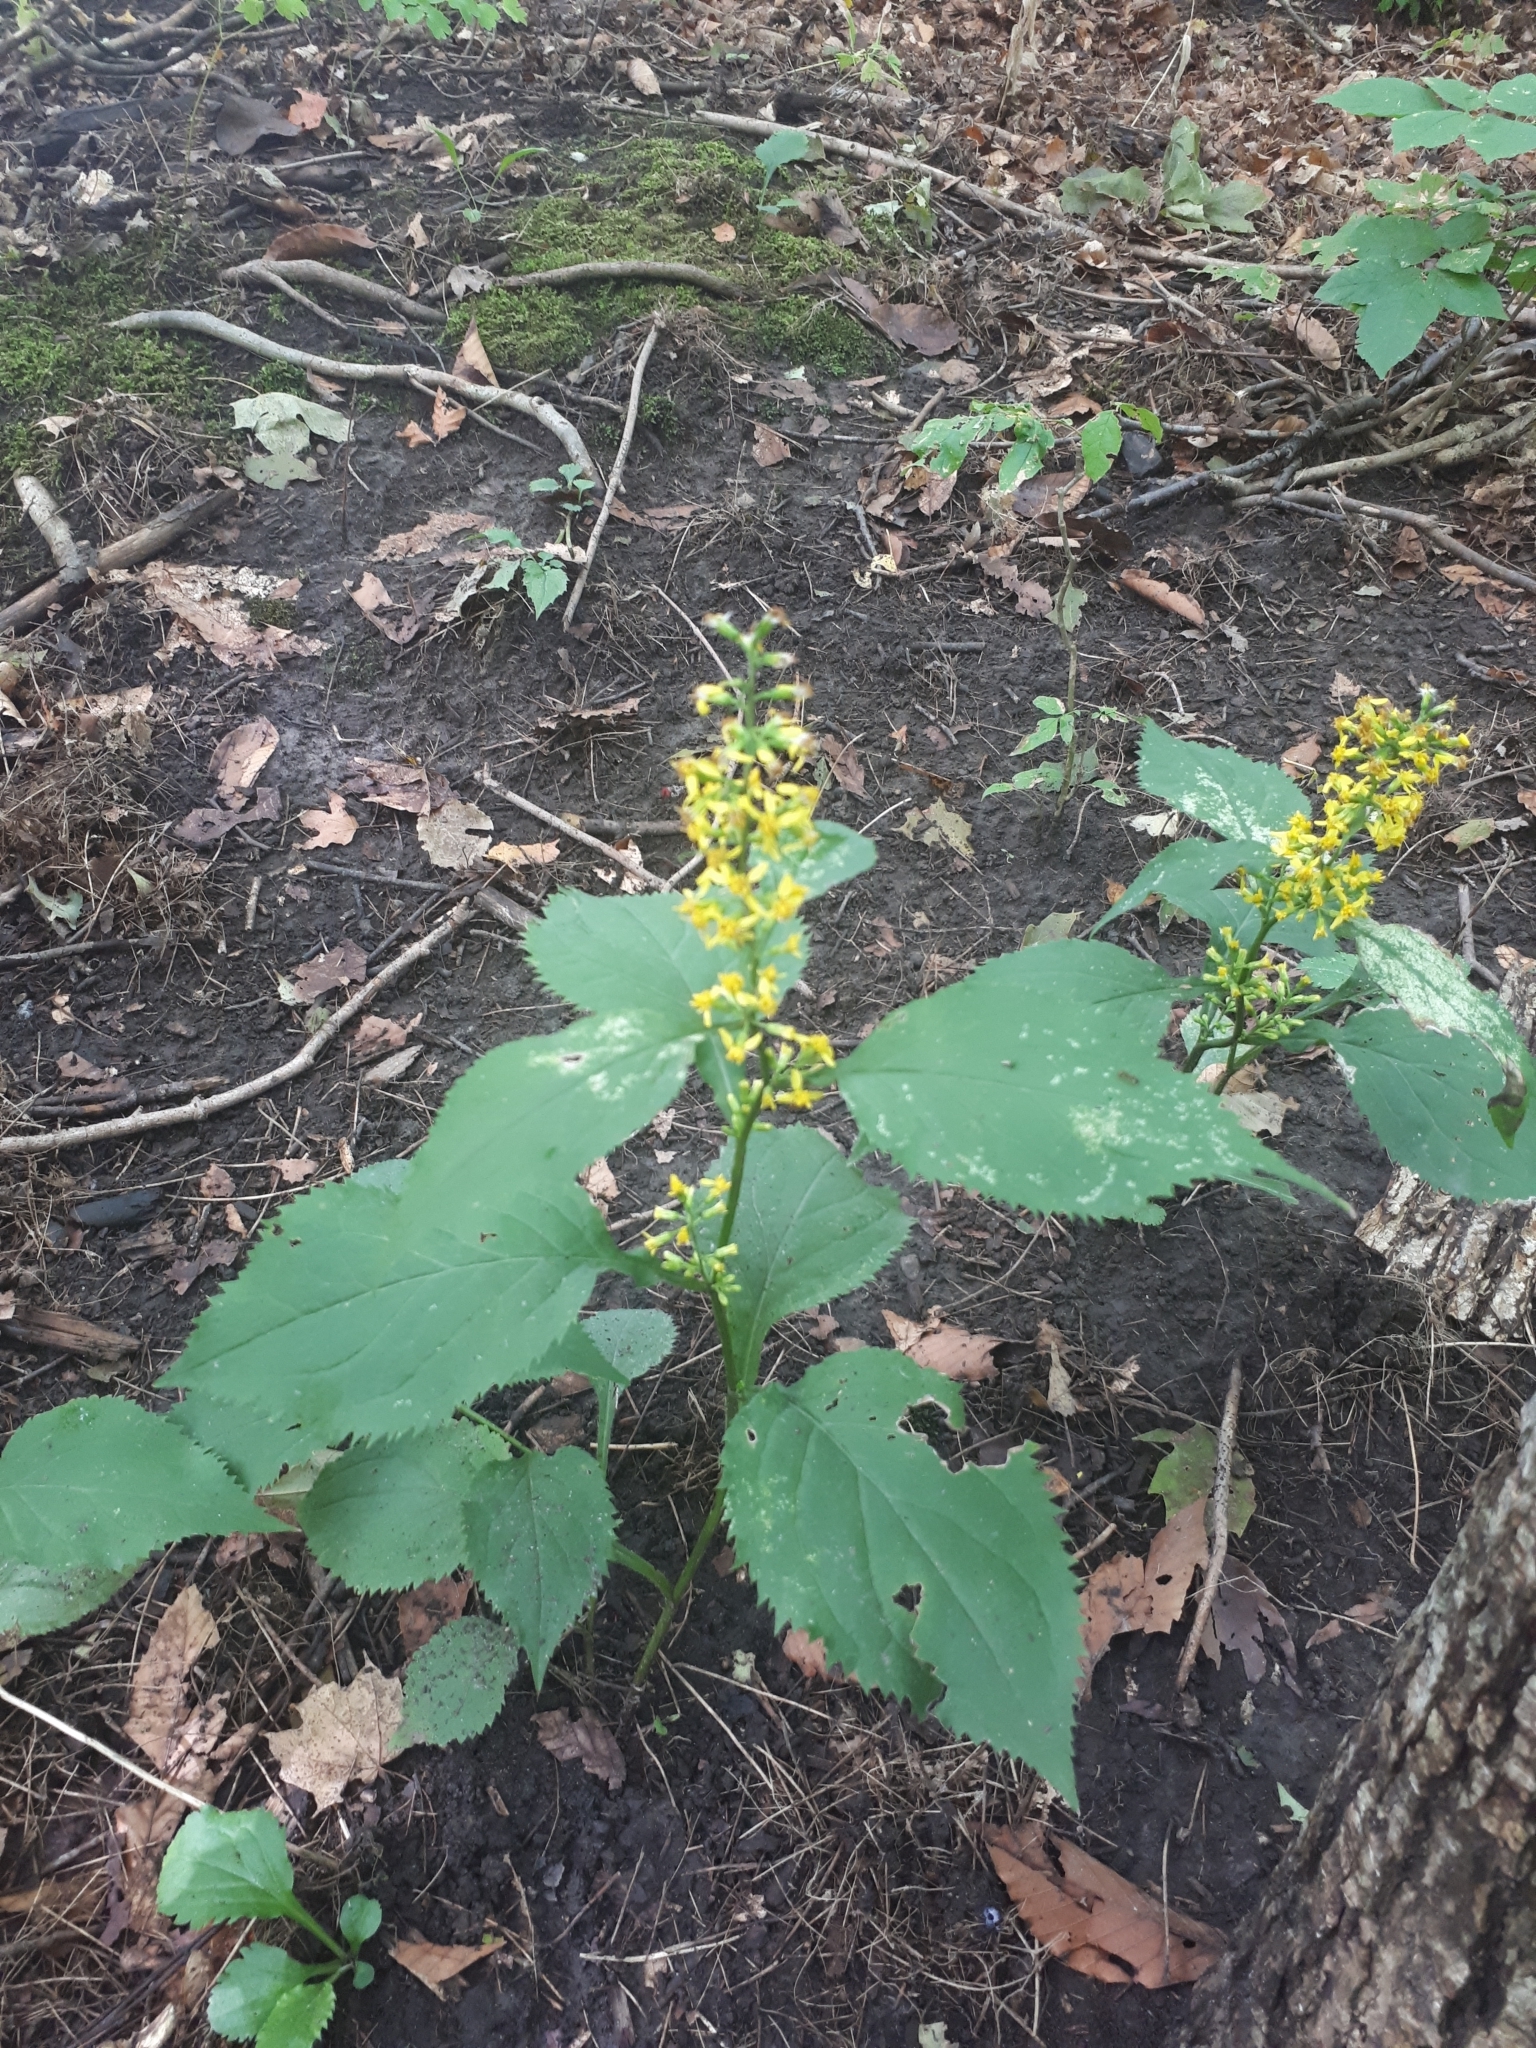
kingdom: Plantae
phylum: Tracheophyta
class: Magnoliopsida
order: Asterales
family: Asteraceae
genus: Solidago
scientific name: Solidago flexicaulis
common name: Zig-zag goldenrod
